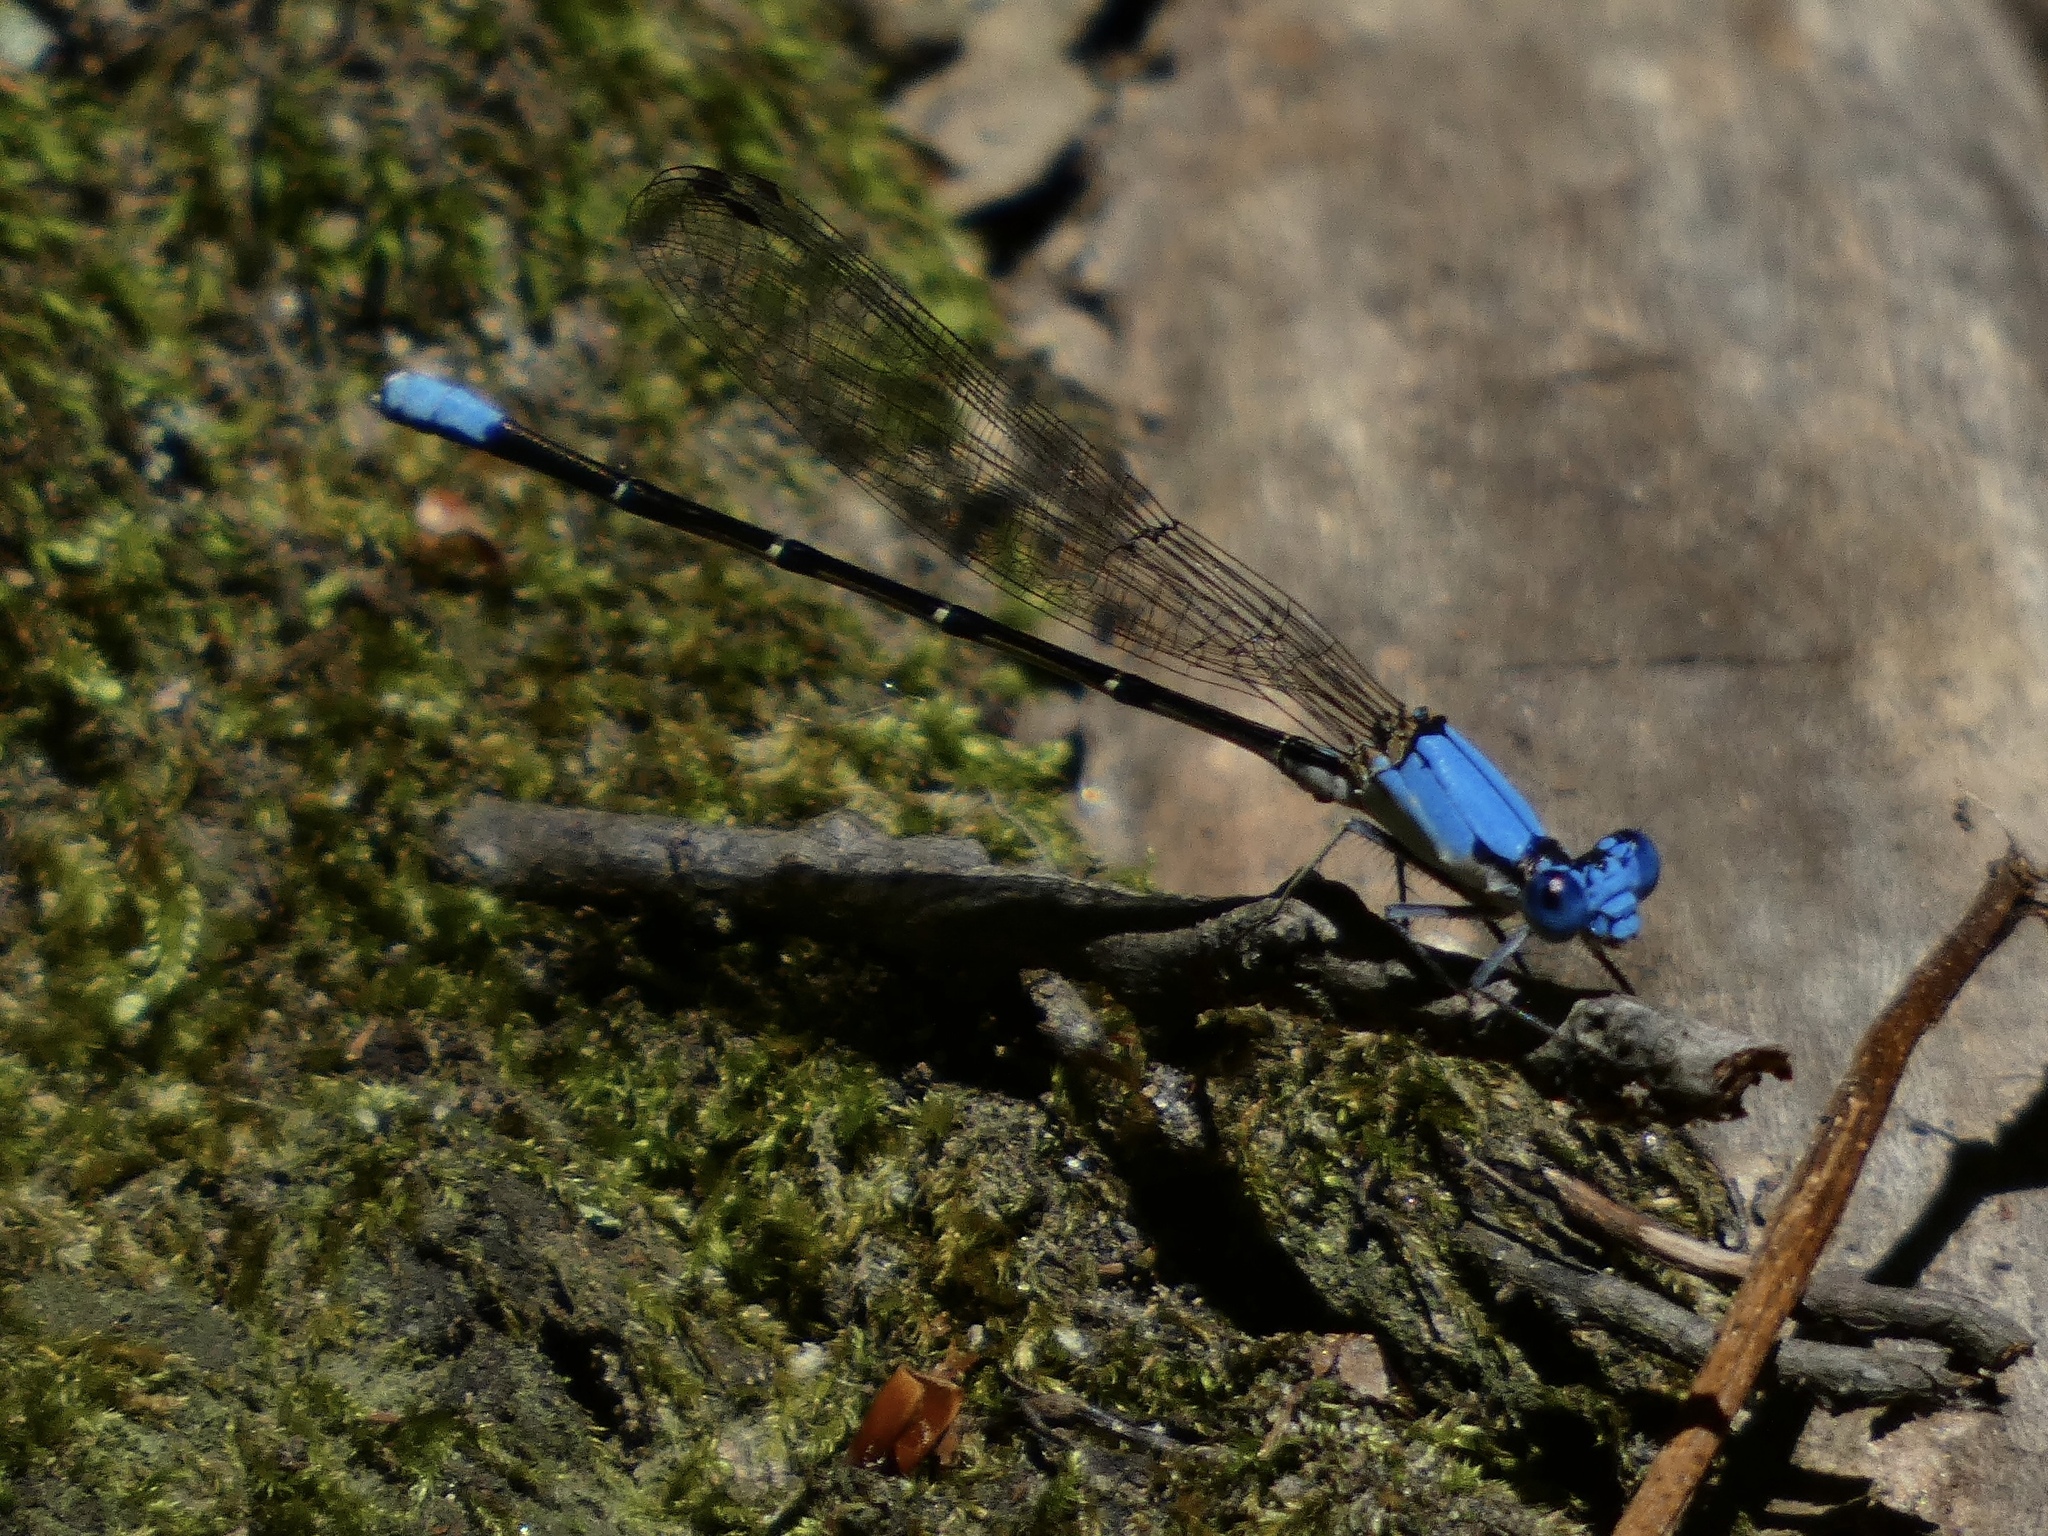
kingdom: Animalia
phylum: Arthropoda
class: Insecta
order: Odonata
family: Coenagrionidae
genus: Argia
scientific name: Argia apicalis
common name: Blue-fronted dancer
